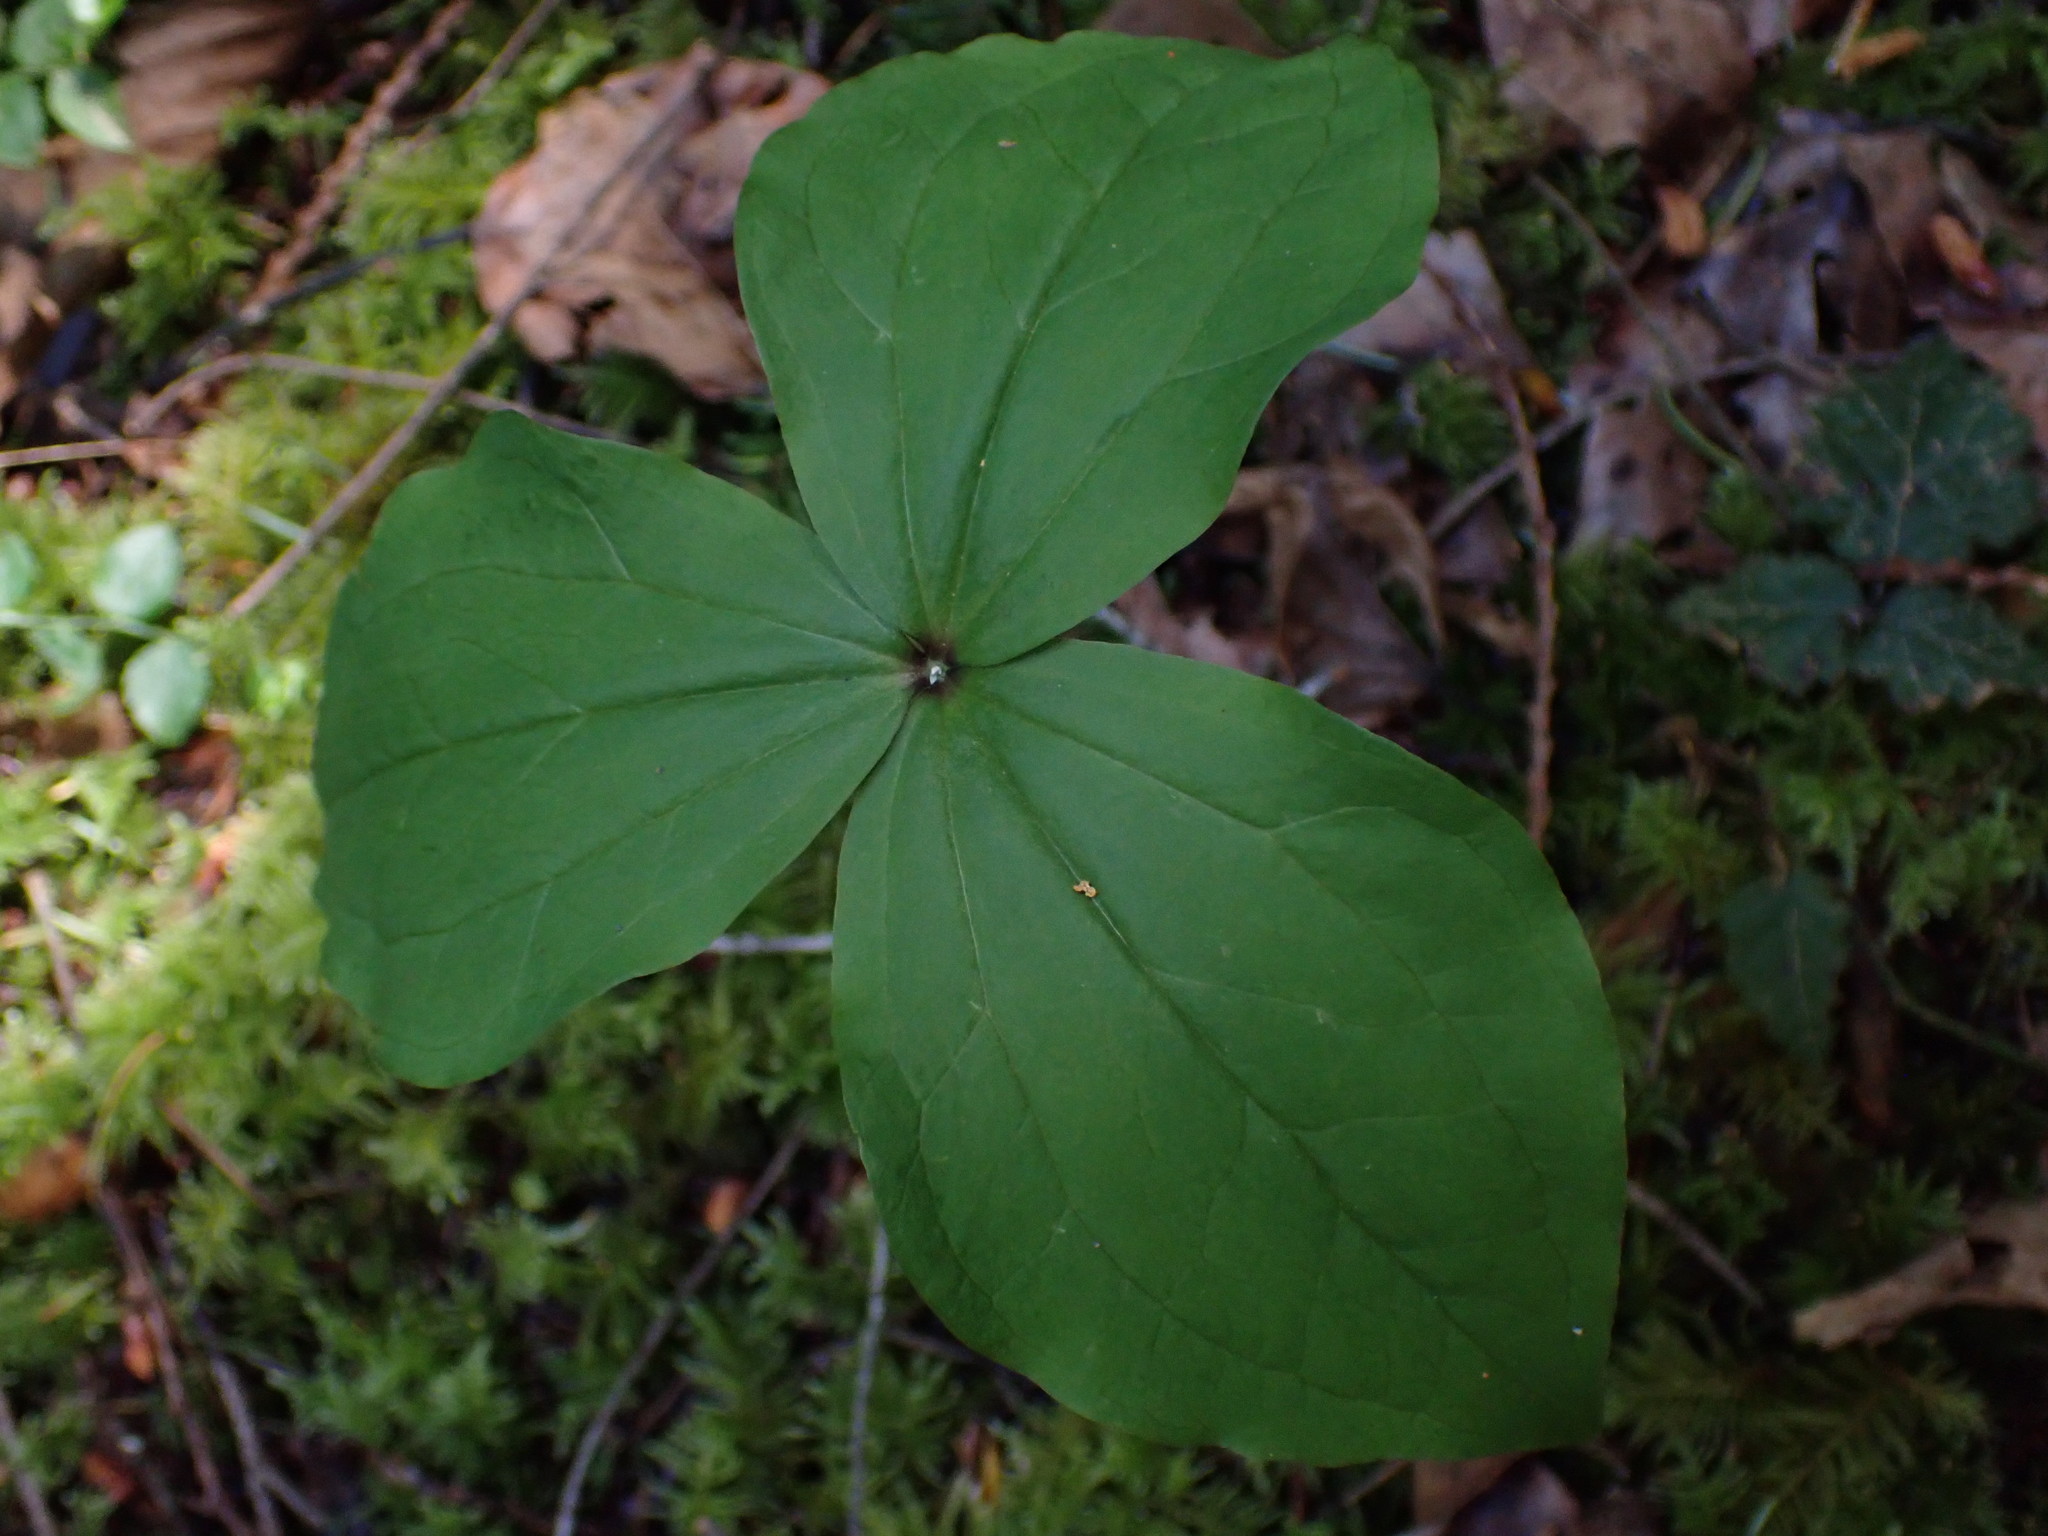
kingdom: Plantae
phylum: Tracheophyta
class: Liliopsida
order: Liliales
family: Melanthiaceae
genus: Trillium
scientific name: Trillium ovatum
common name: Pacific trillium
